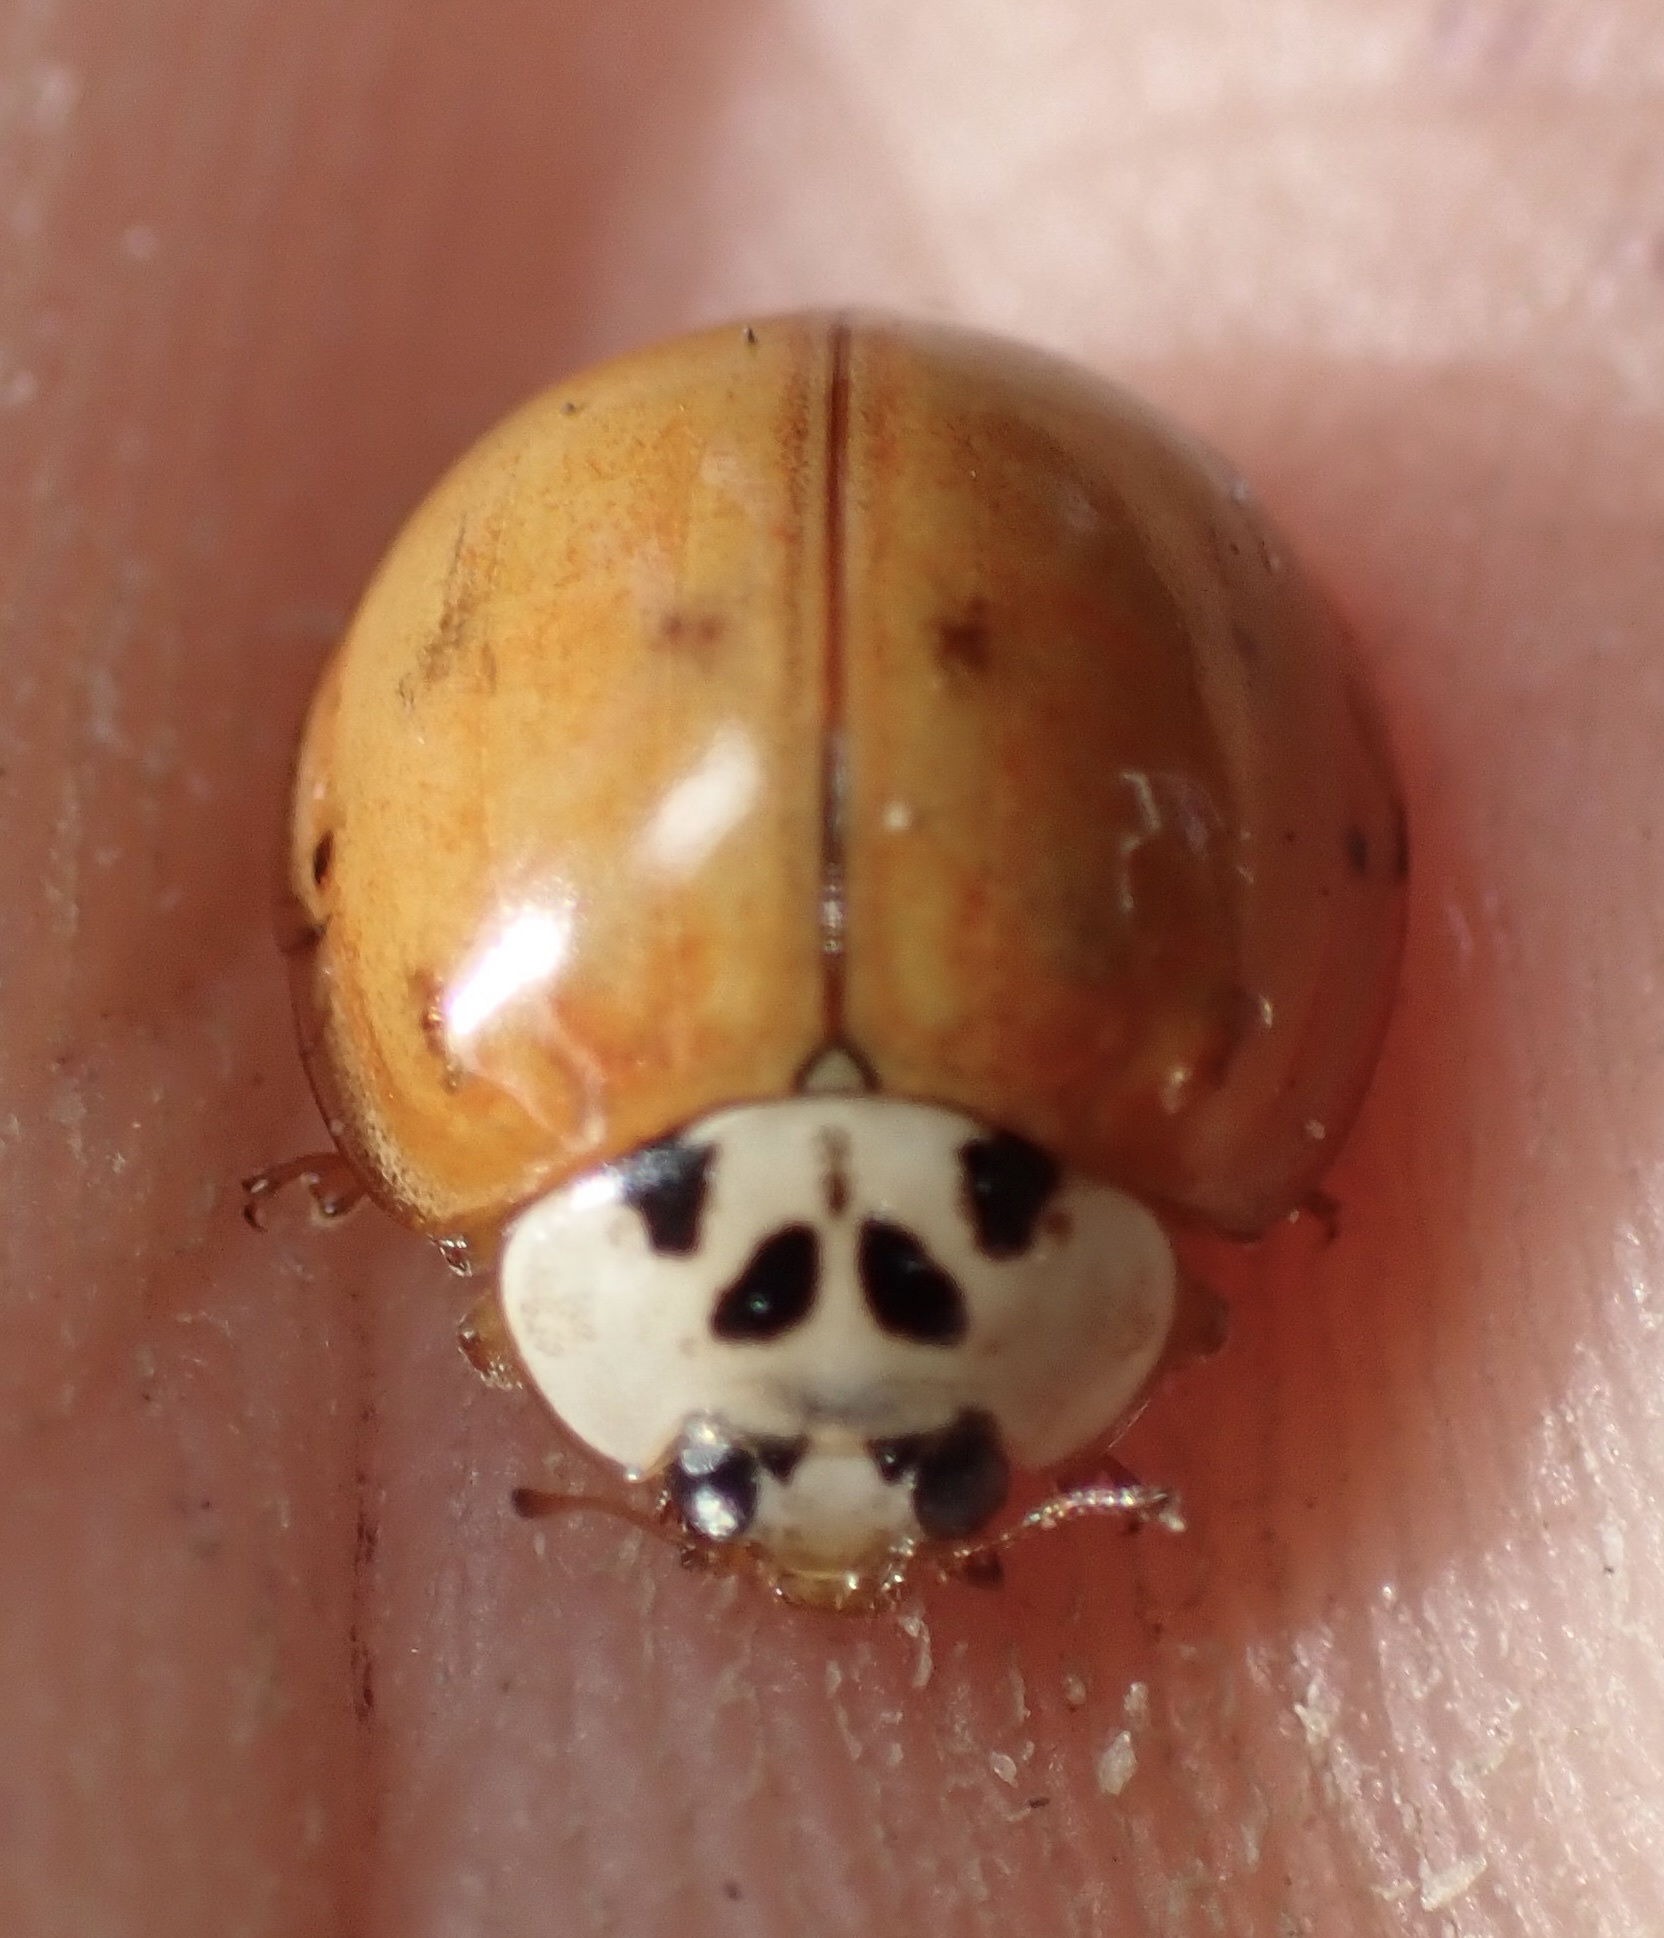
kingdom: Animalia
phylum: Arthropoda
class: Insecta
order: Coleoptera
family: Coccinellidae
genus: Harmonia
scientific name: Harmonia axyridis
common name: Harlequin ladybird
